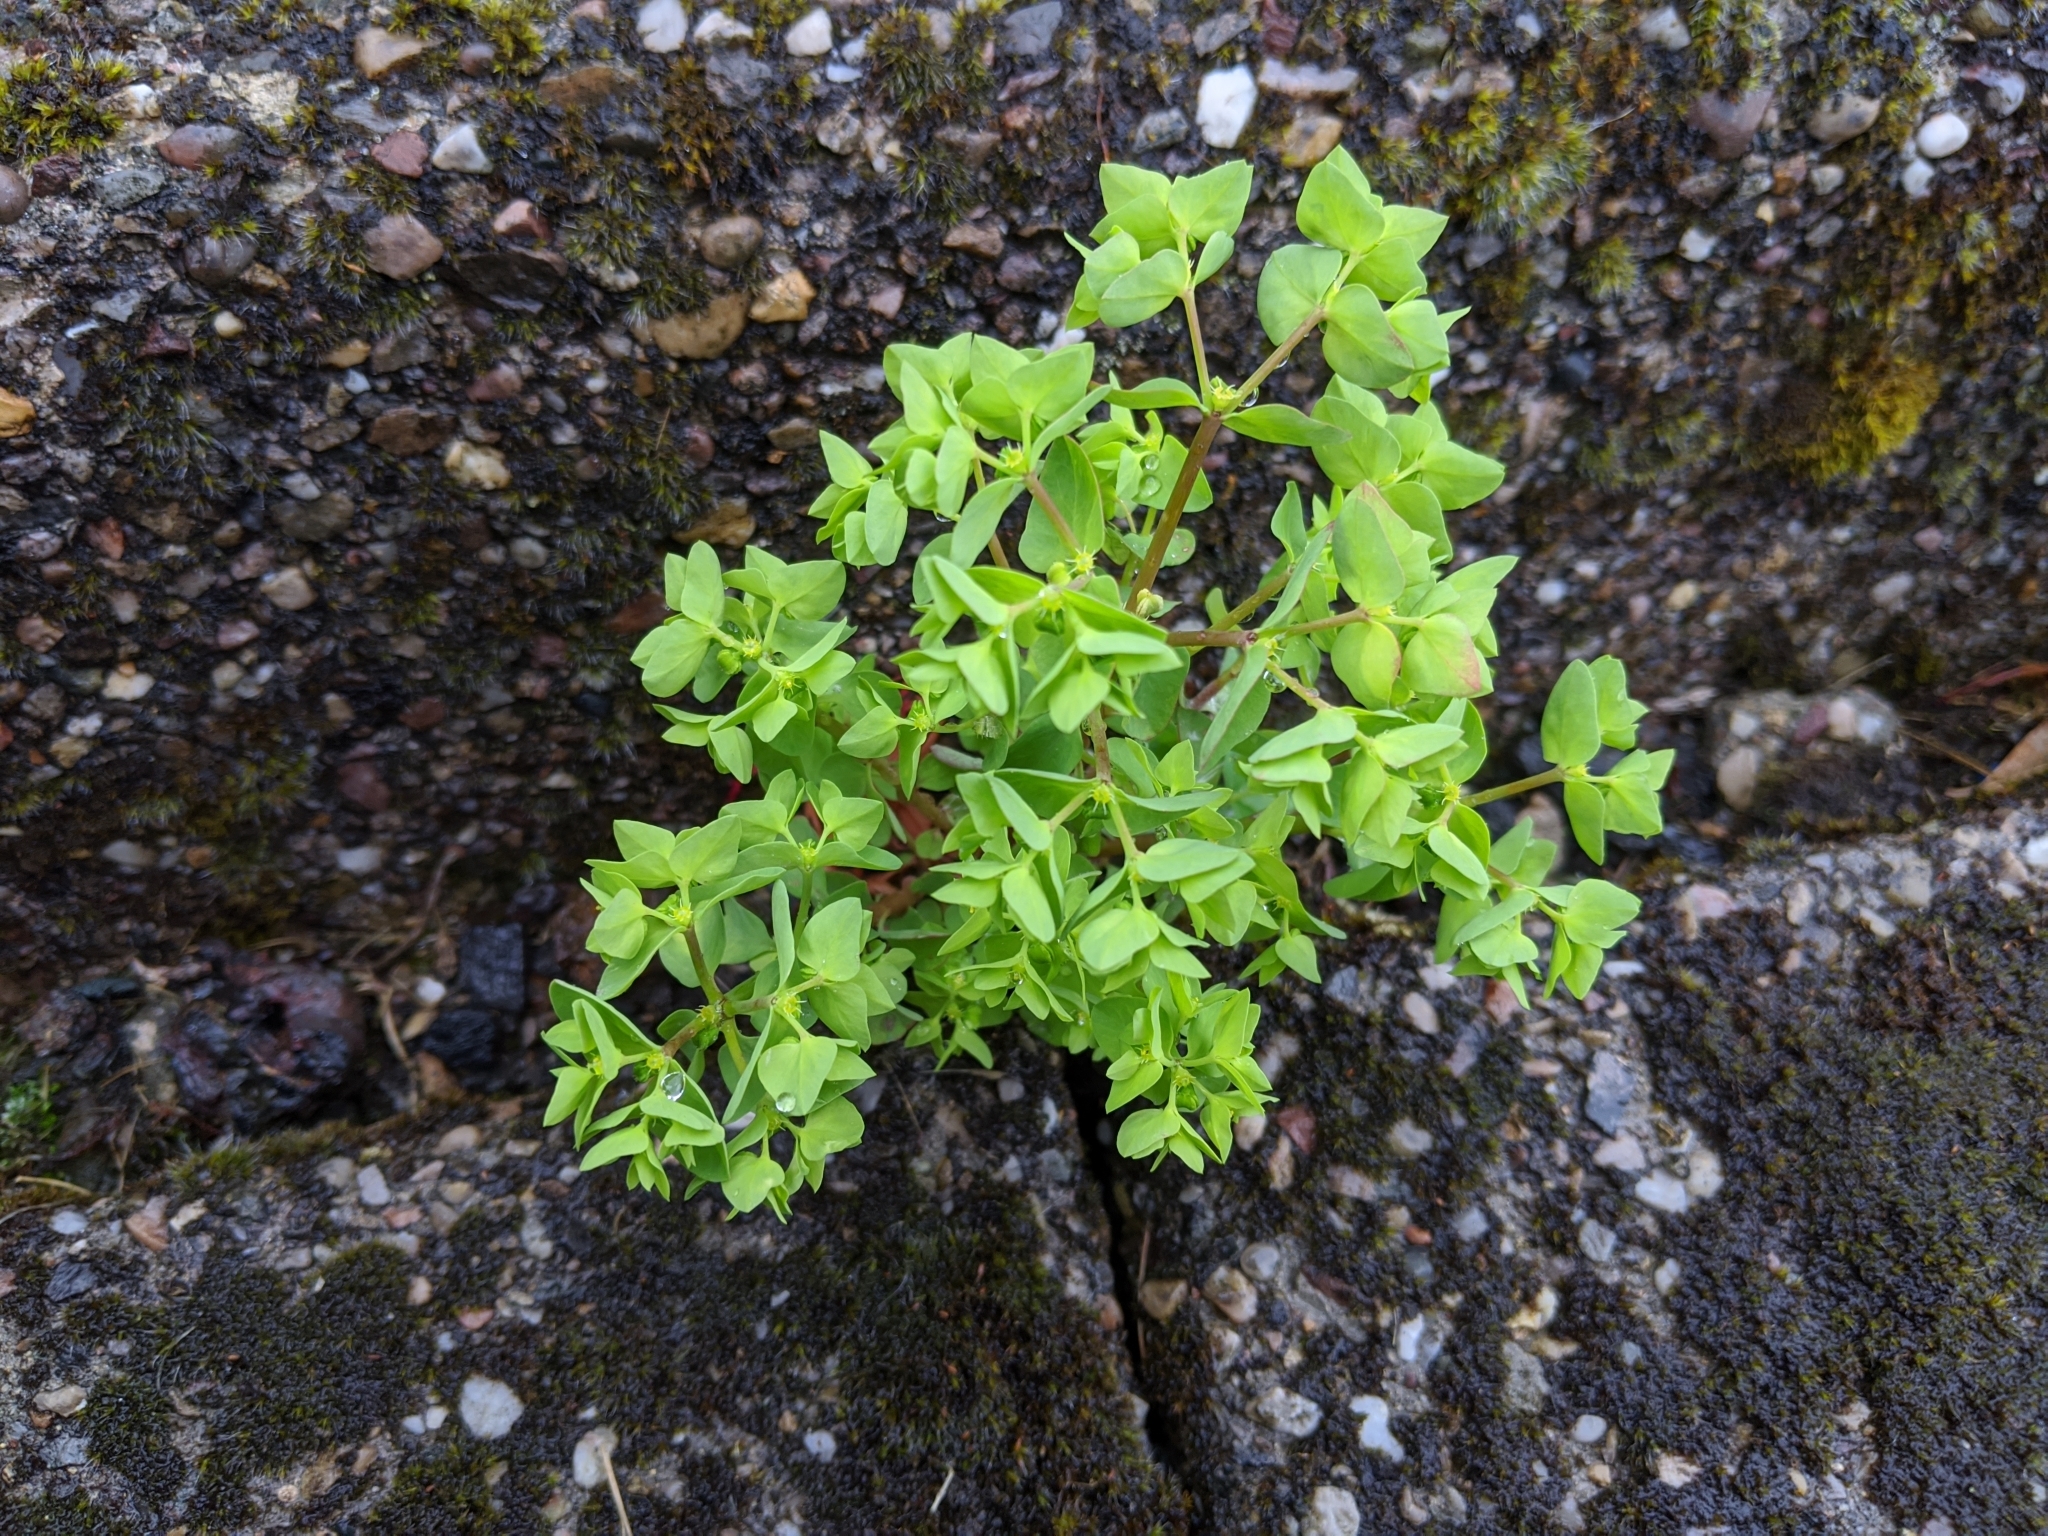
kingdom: Plantae
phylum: Tracheophyta
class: Magnoliopsida
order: Malpighiales
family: Euphorbiaceae
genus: Euphorbia
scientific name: Euphorbia peplus
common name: Petty spurge
